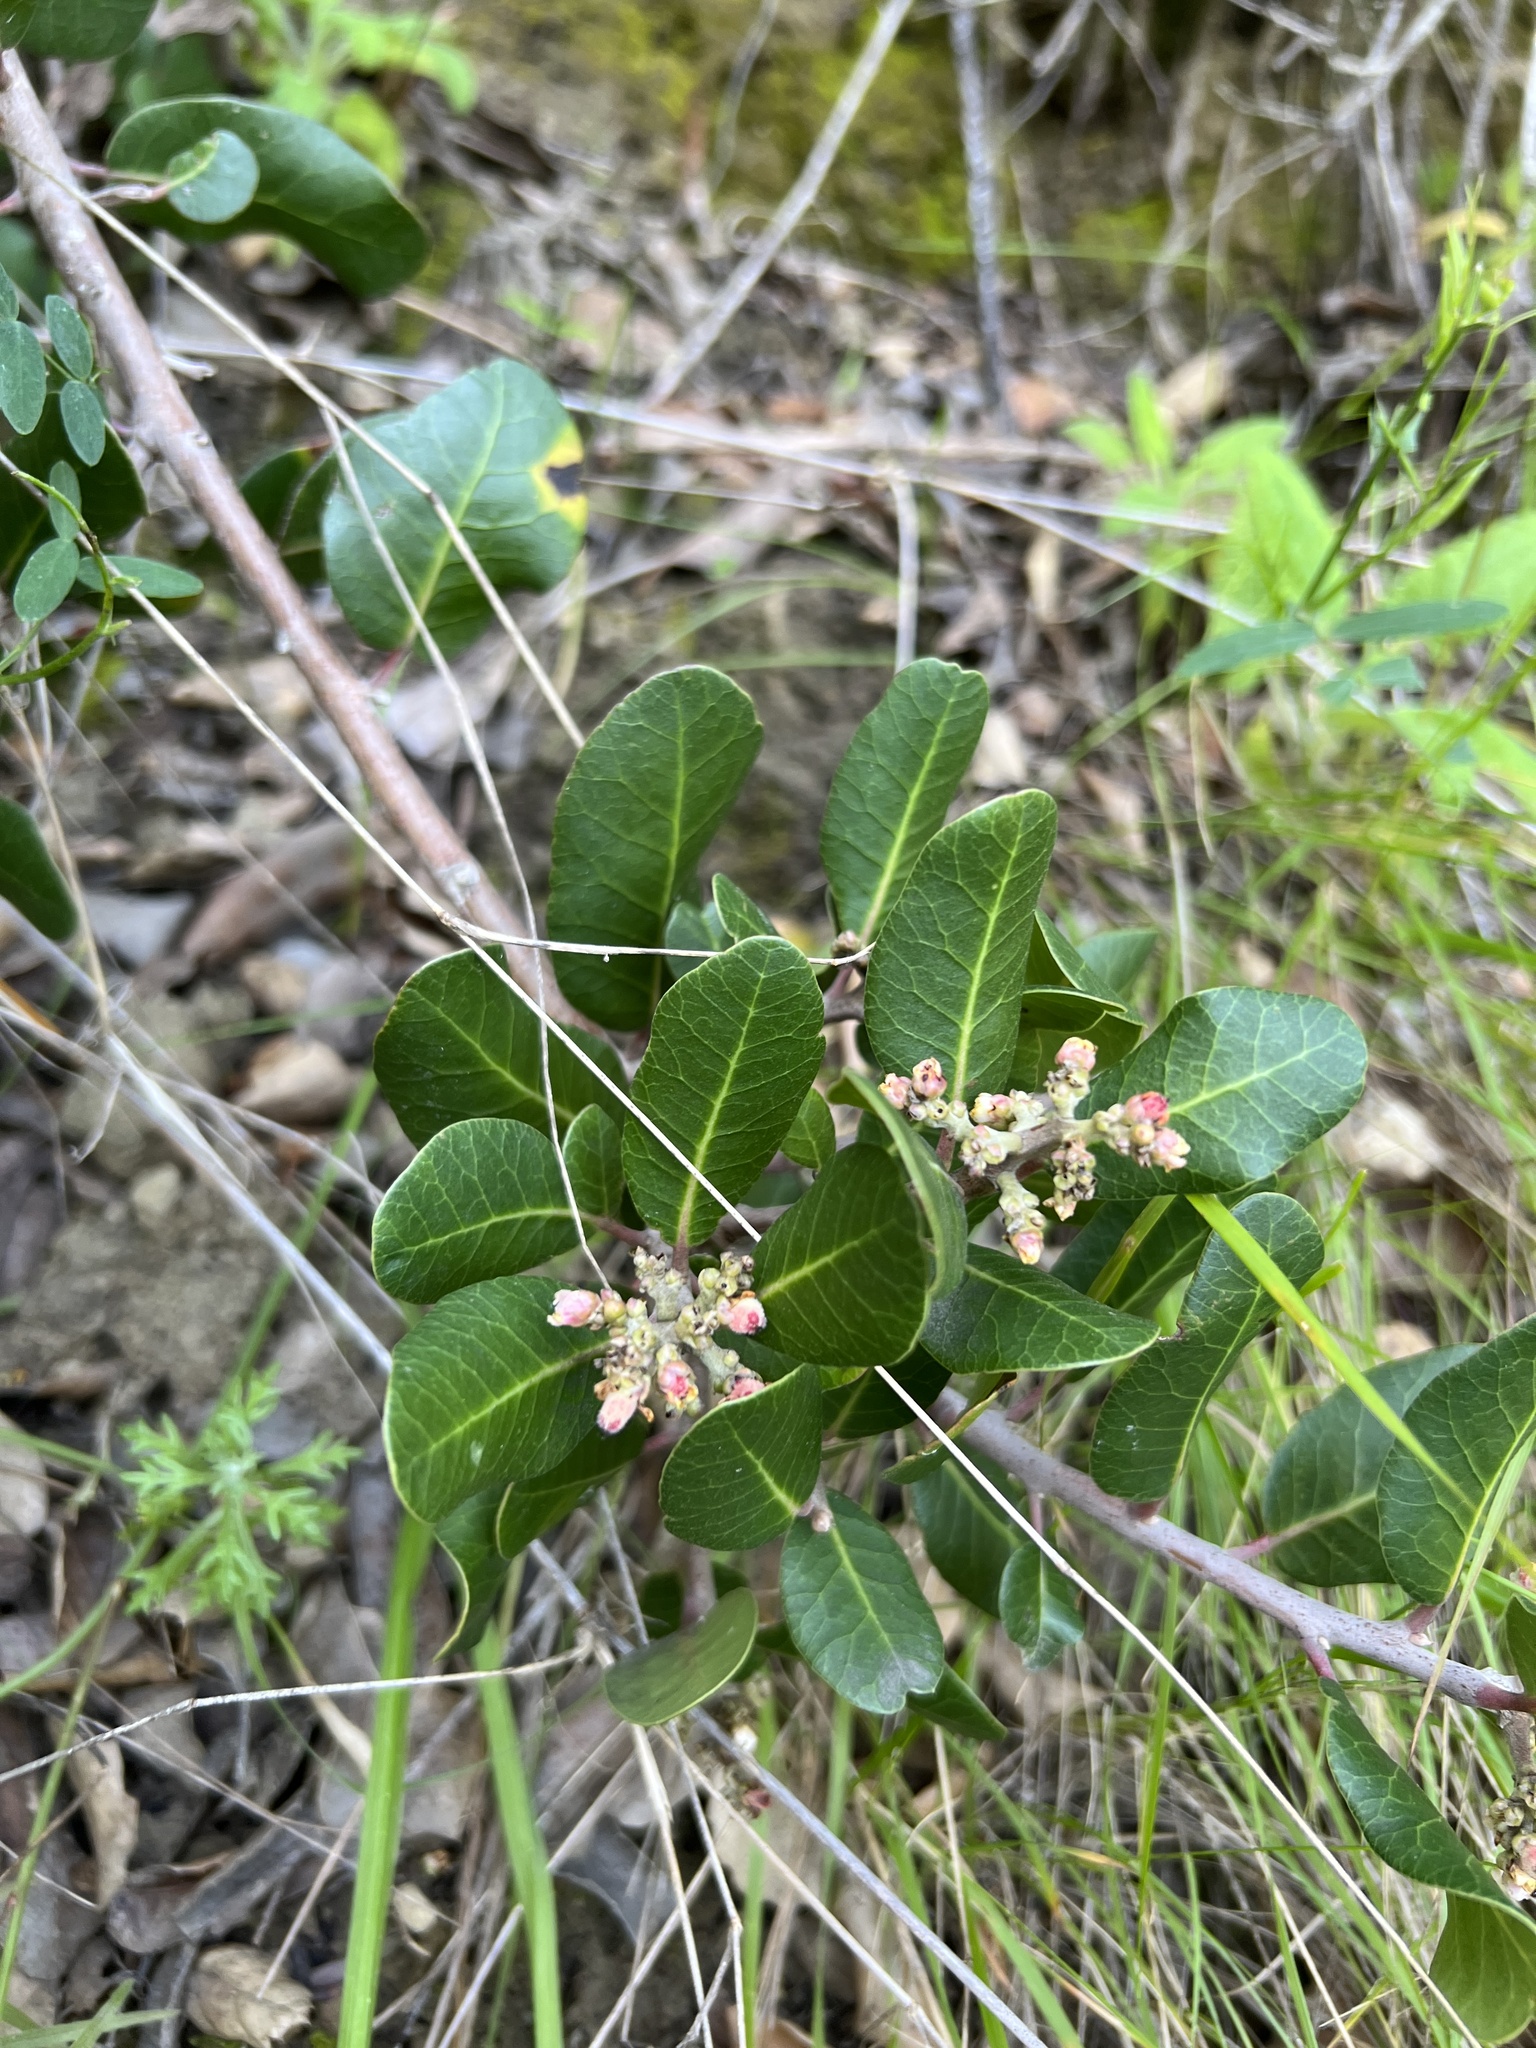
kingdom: Plantae
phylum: Tracheophyta
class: Magnoliopsida
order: Sapindales
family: Anacardiaceae
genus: Rhus
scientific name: Rhus integrifolia
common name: Lemonade sumac
